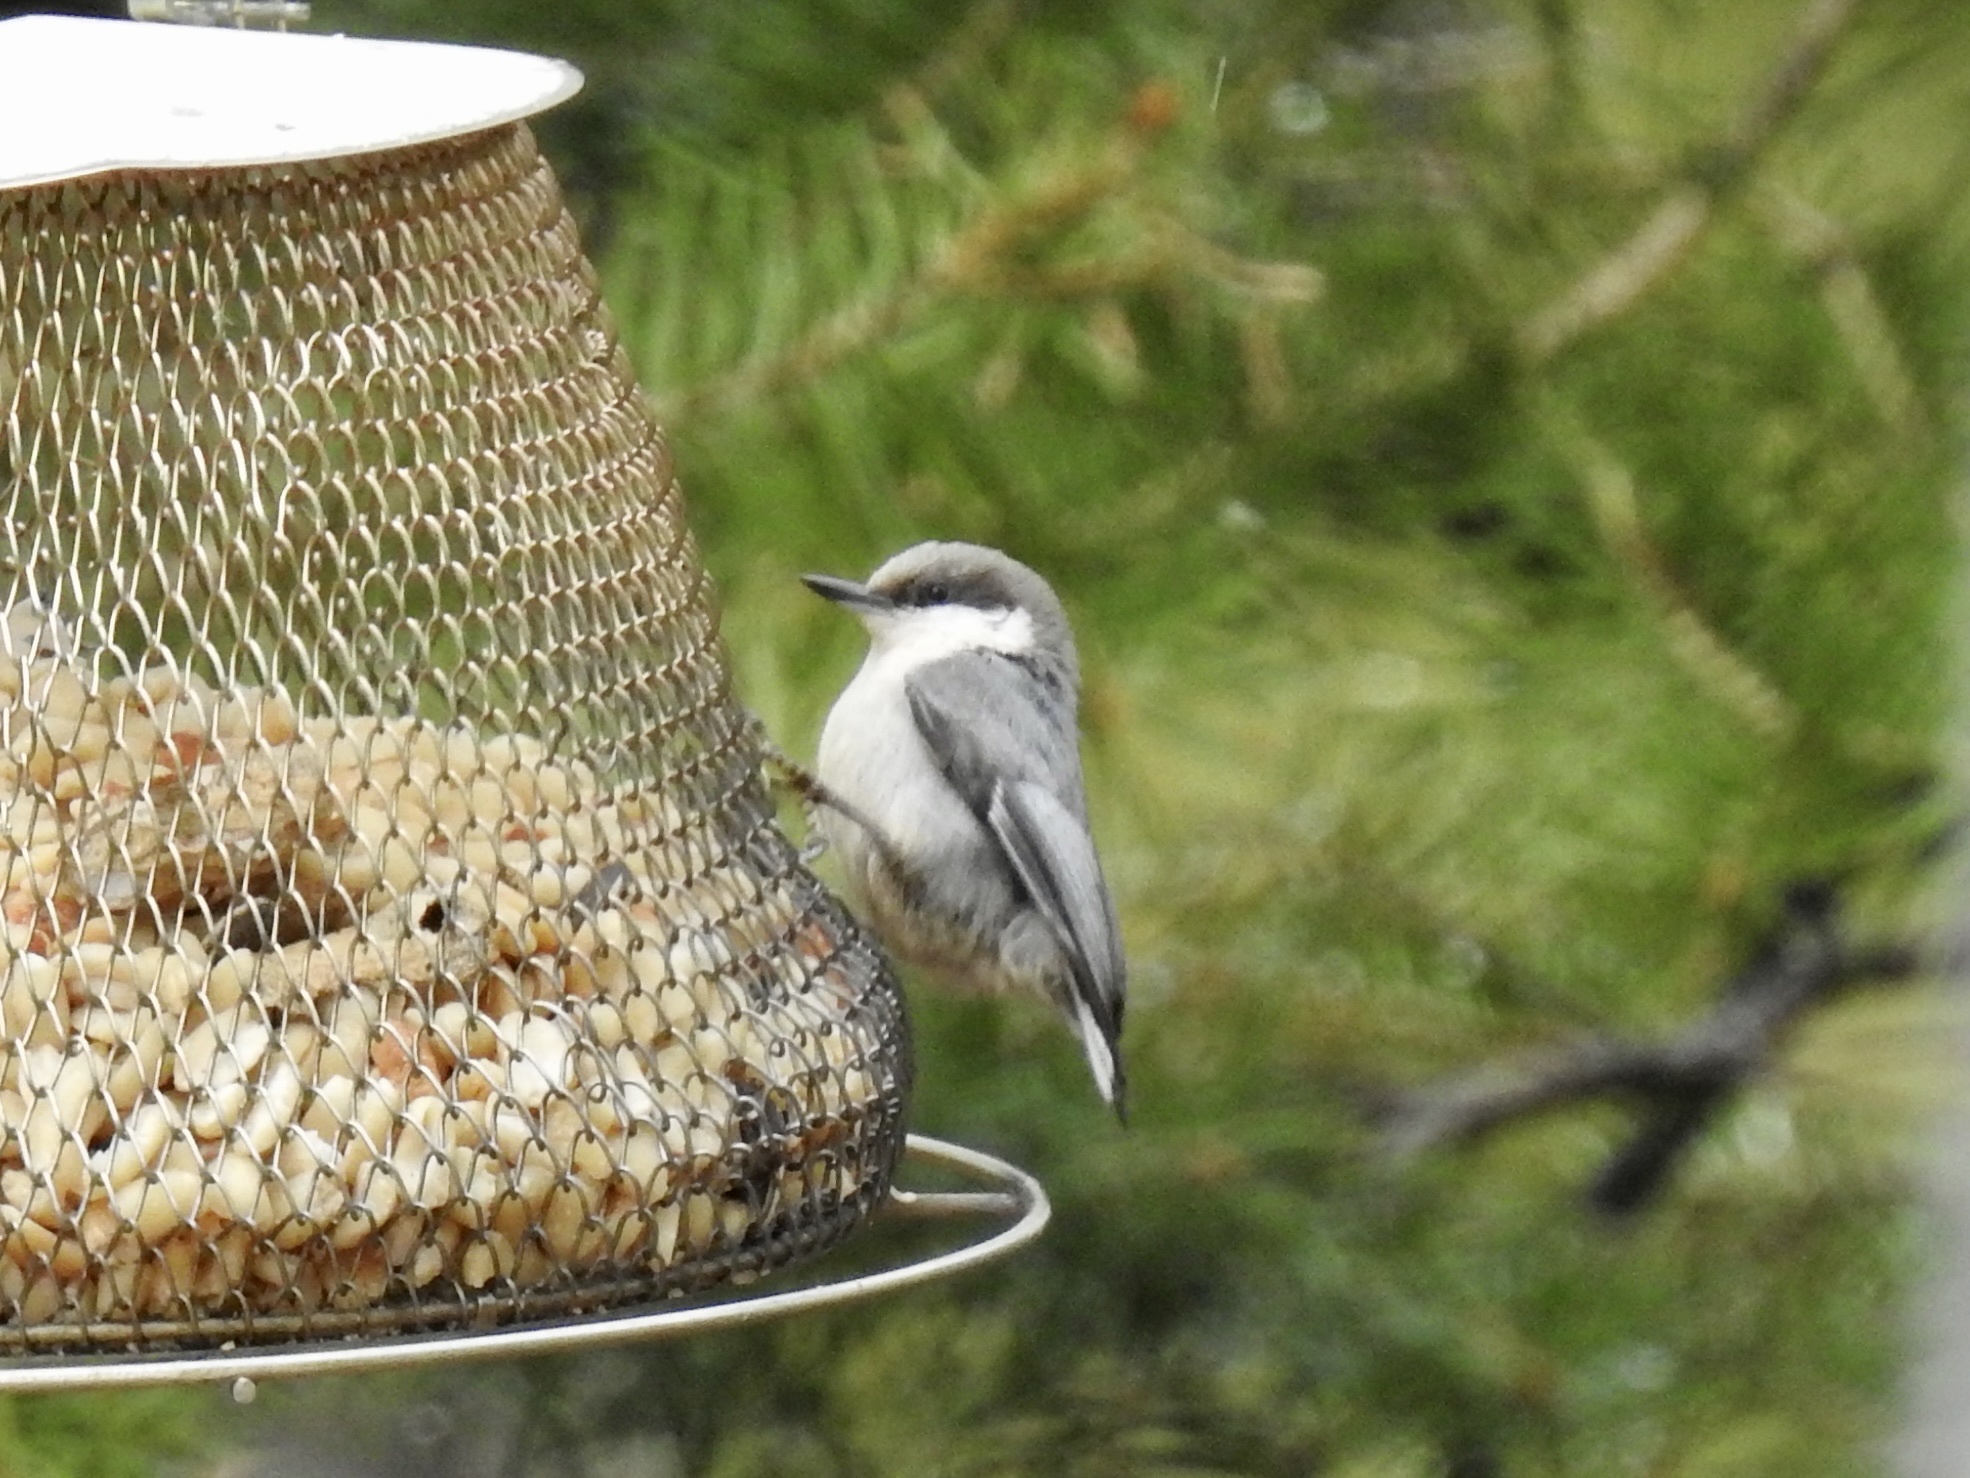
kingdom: Animalia
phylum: Chordata
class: Aves
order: Passeriformes
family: Sittidae
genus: Sitta
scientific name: Sitta pygmaea
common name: Pygmy nuthatch
